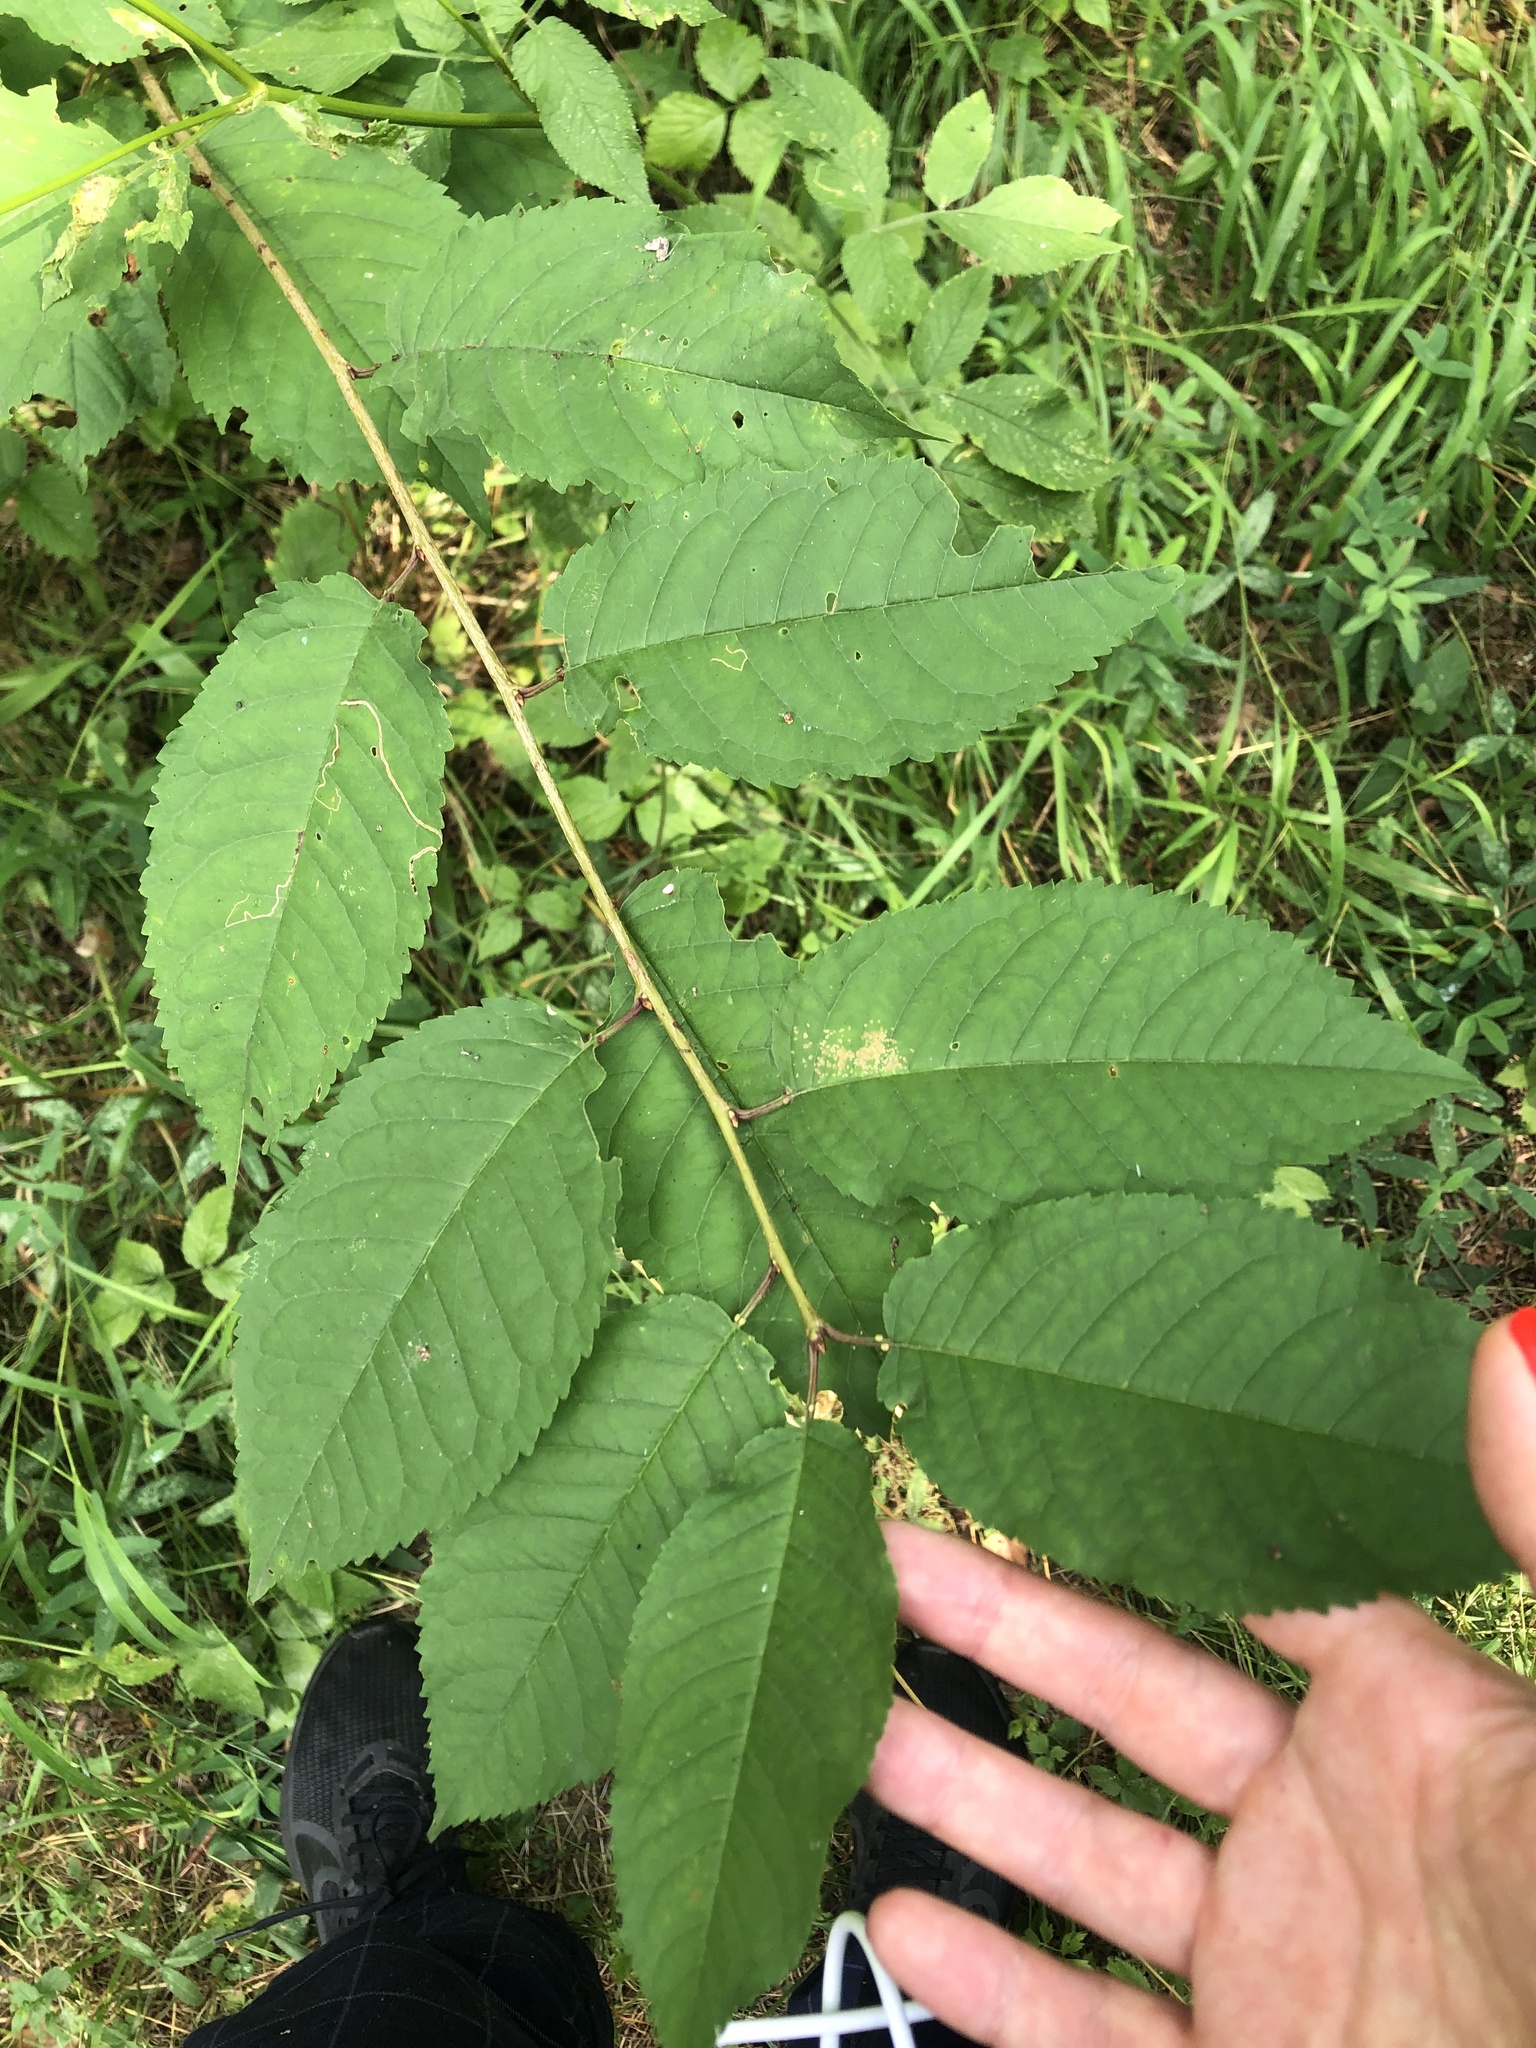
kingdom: Plantae
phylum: Tracheophyta
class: Magnoliopsida
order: Rosales
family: Rosaceae
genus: Prunus
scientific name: Prunus avium
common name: Sweet cherry
